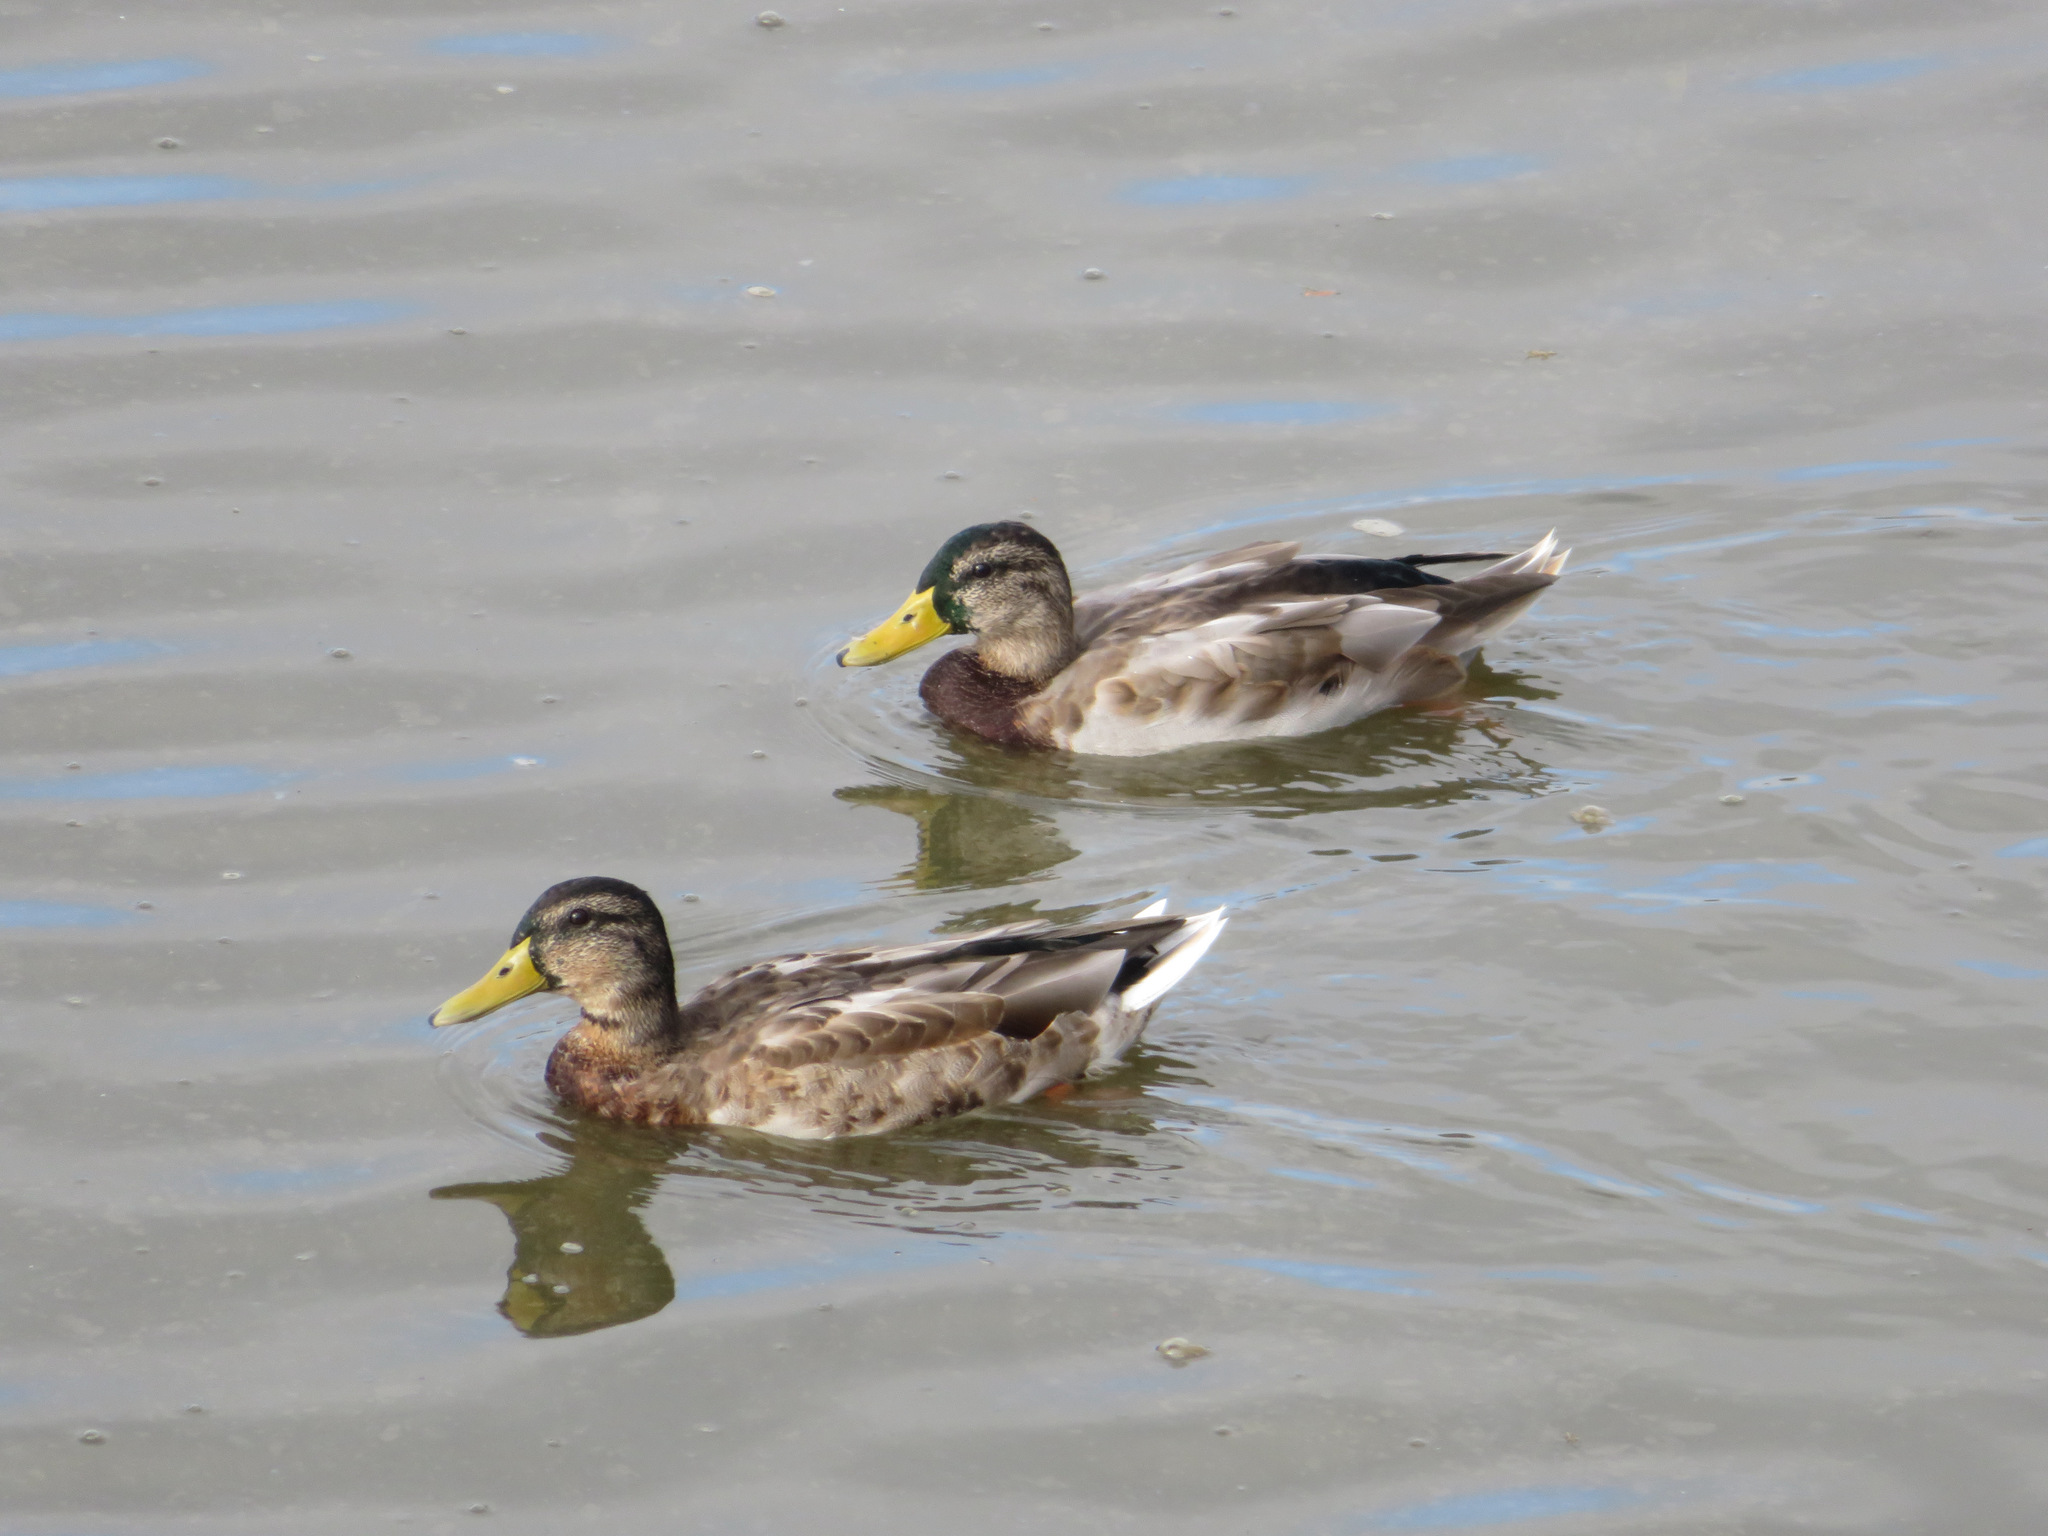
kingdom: Animalia
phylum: Chordata
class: Aves
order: Anseriformes
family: Anatidae
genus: Anas
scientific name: Anas platyrhynchos
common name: Mallard
